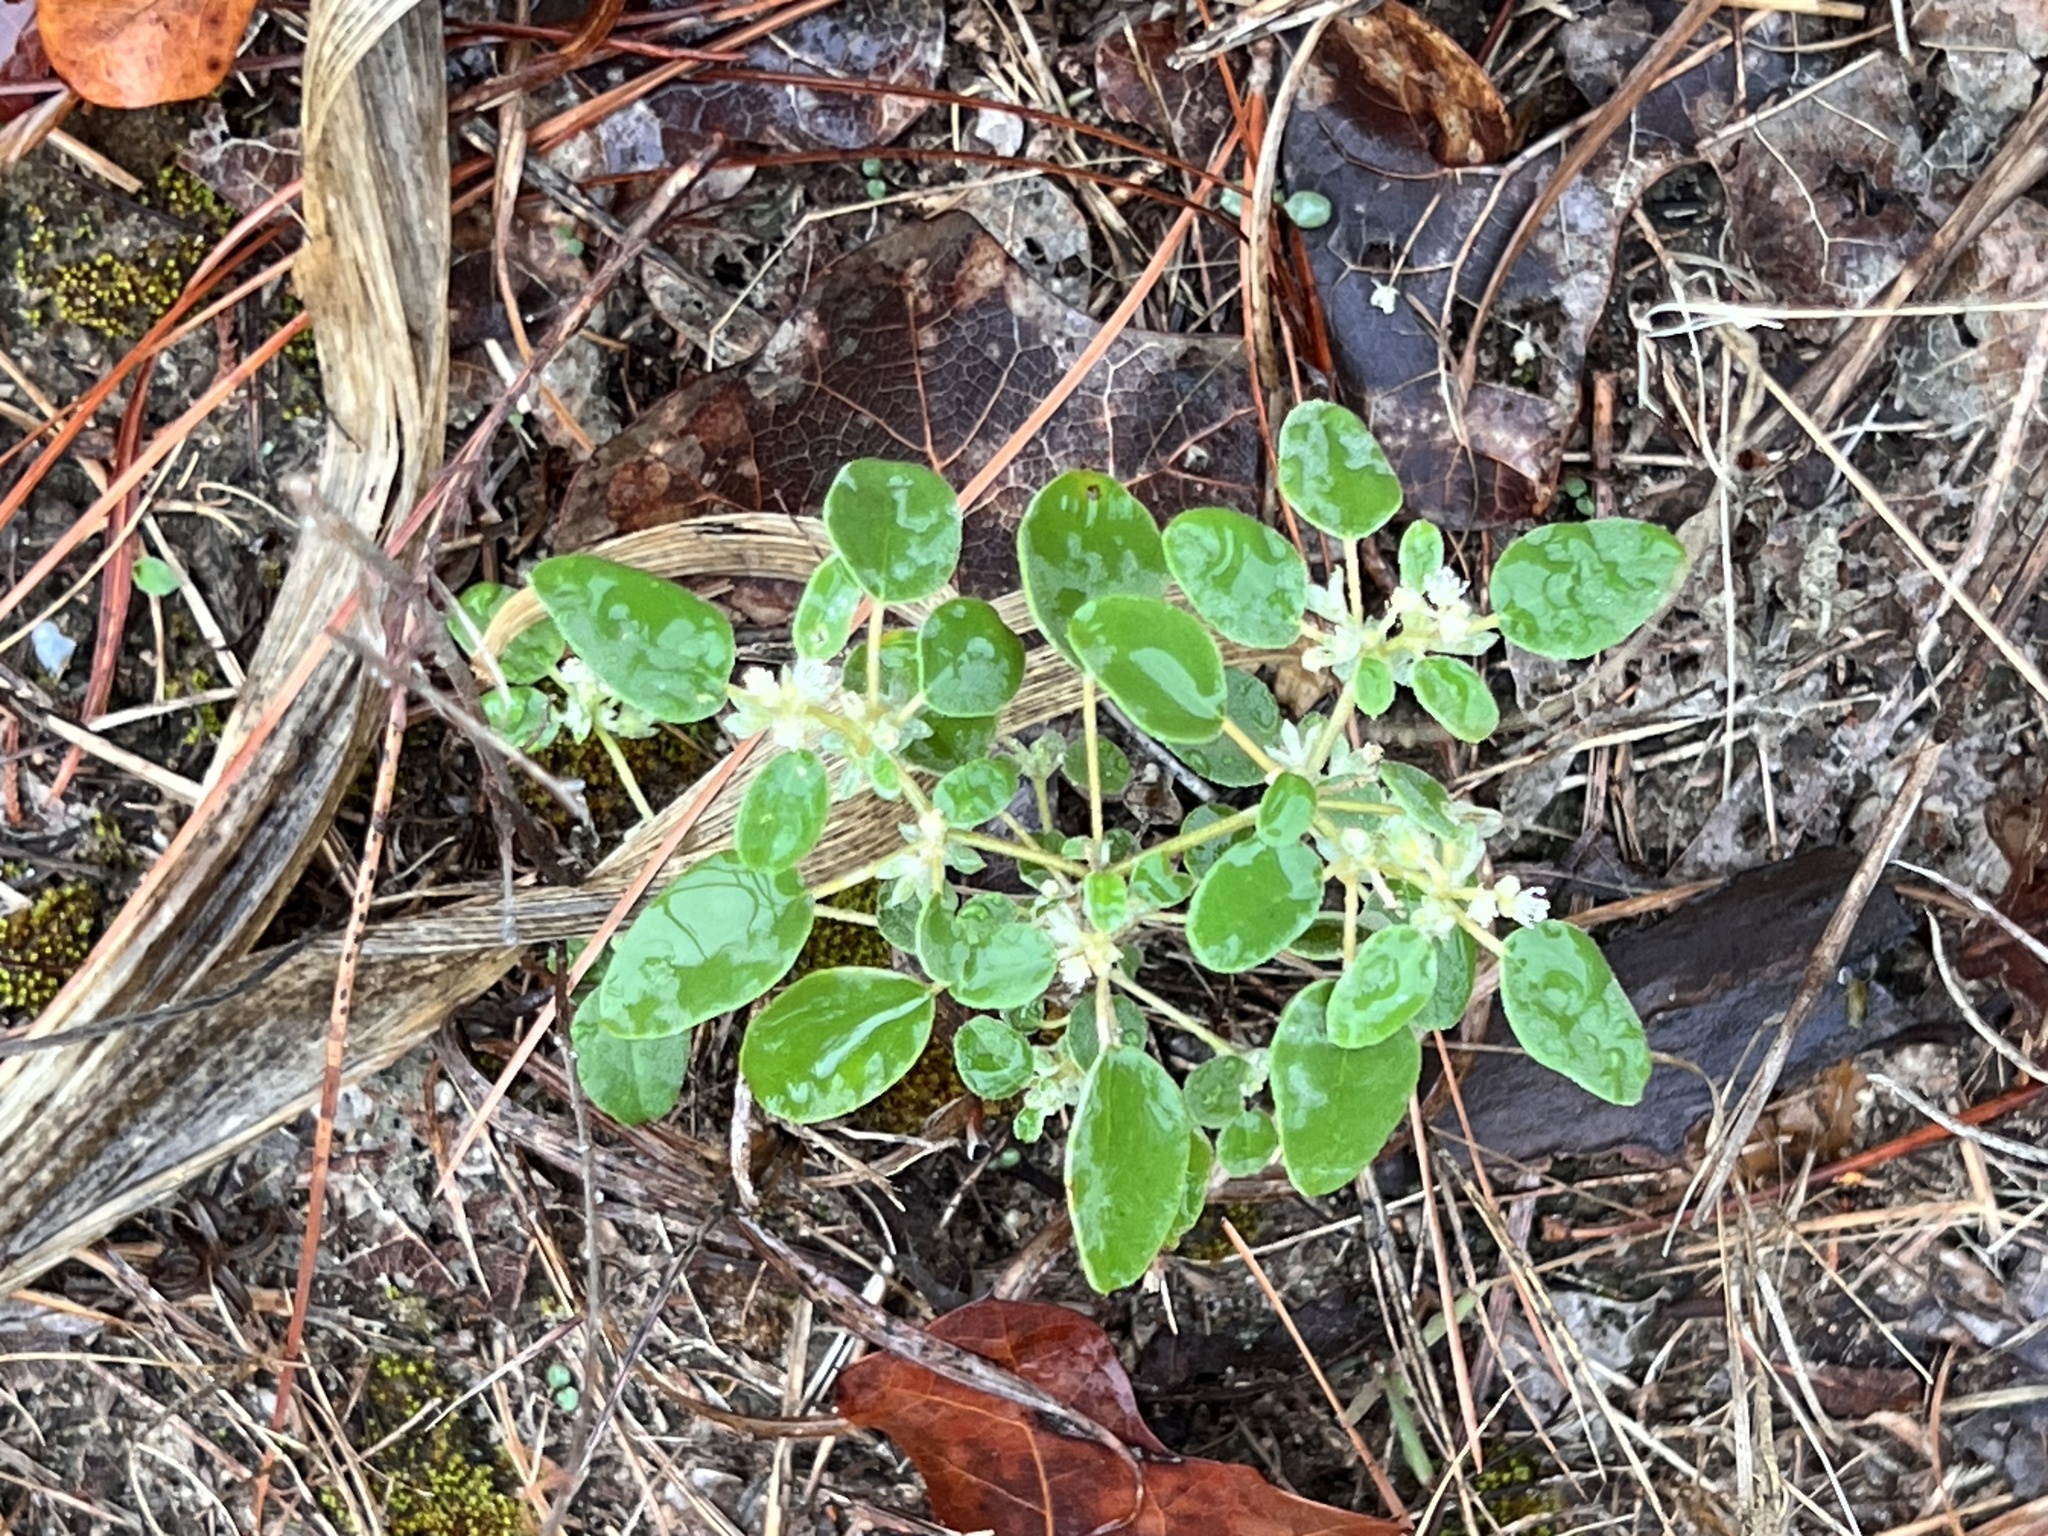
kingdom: Plantae
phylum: Tracheophyta
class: Magnoliopsida
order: Malpighiales
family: Euphorbiaceae
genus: Croton
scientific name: Croton monanthogynus
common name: One-seed croton
